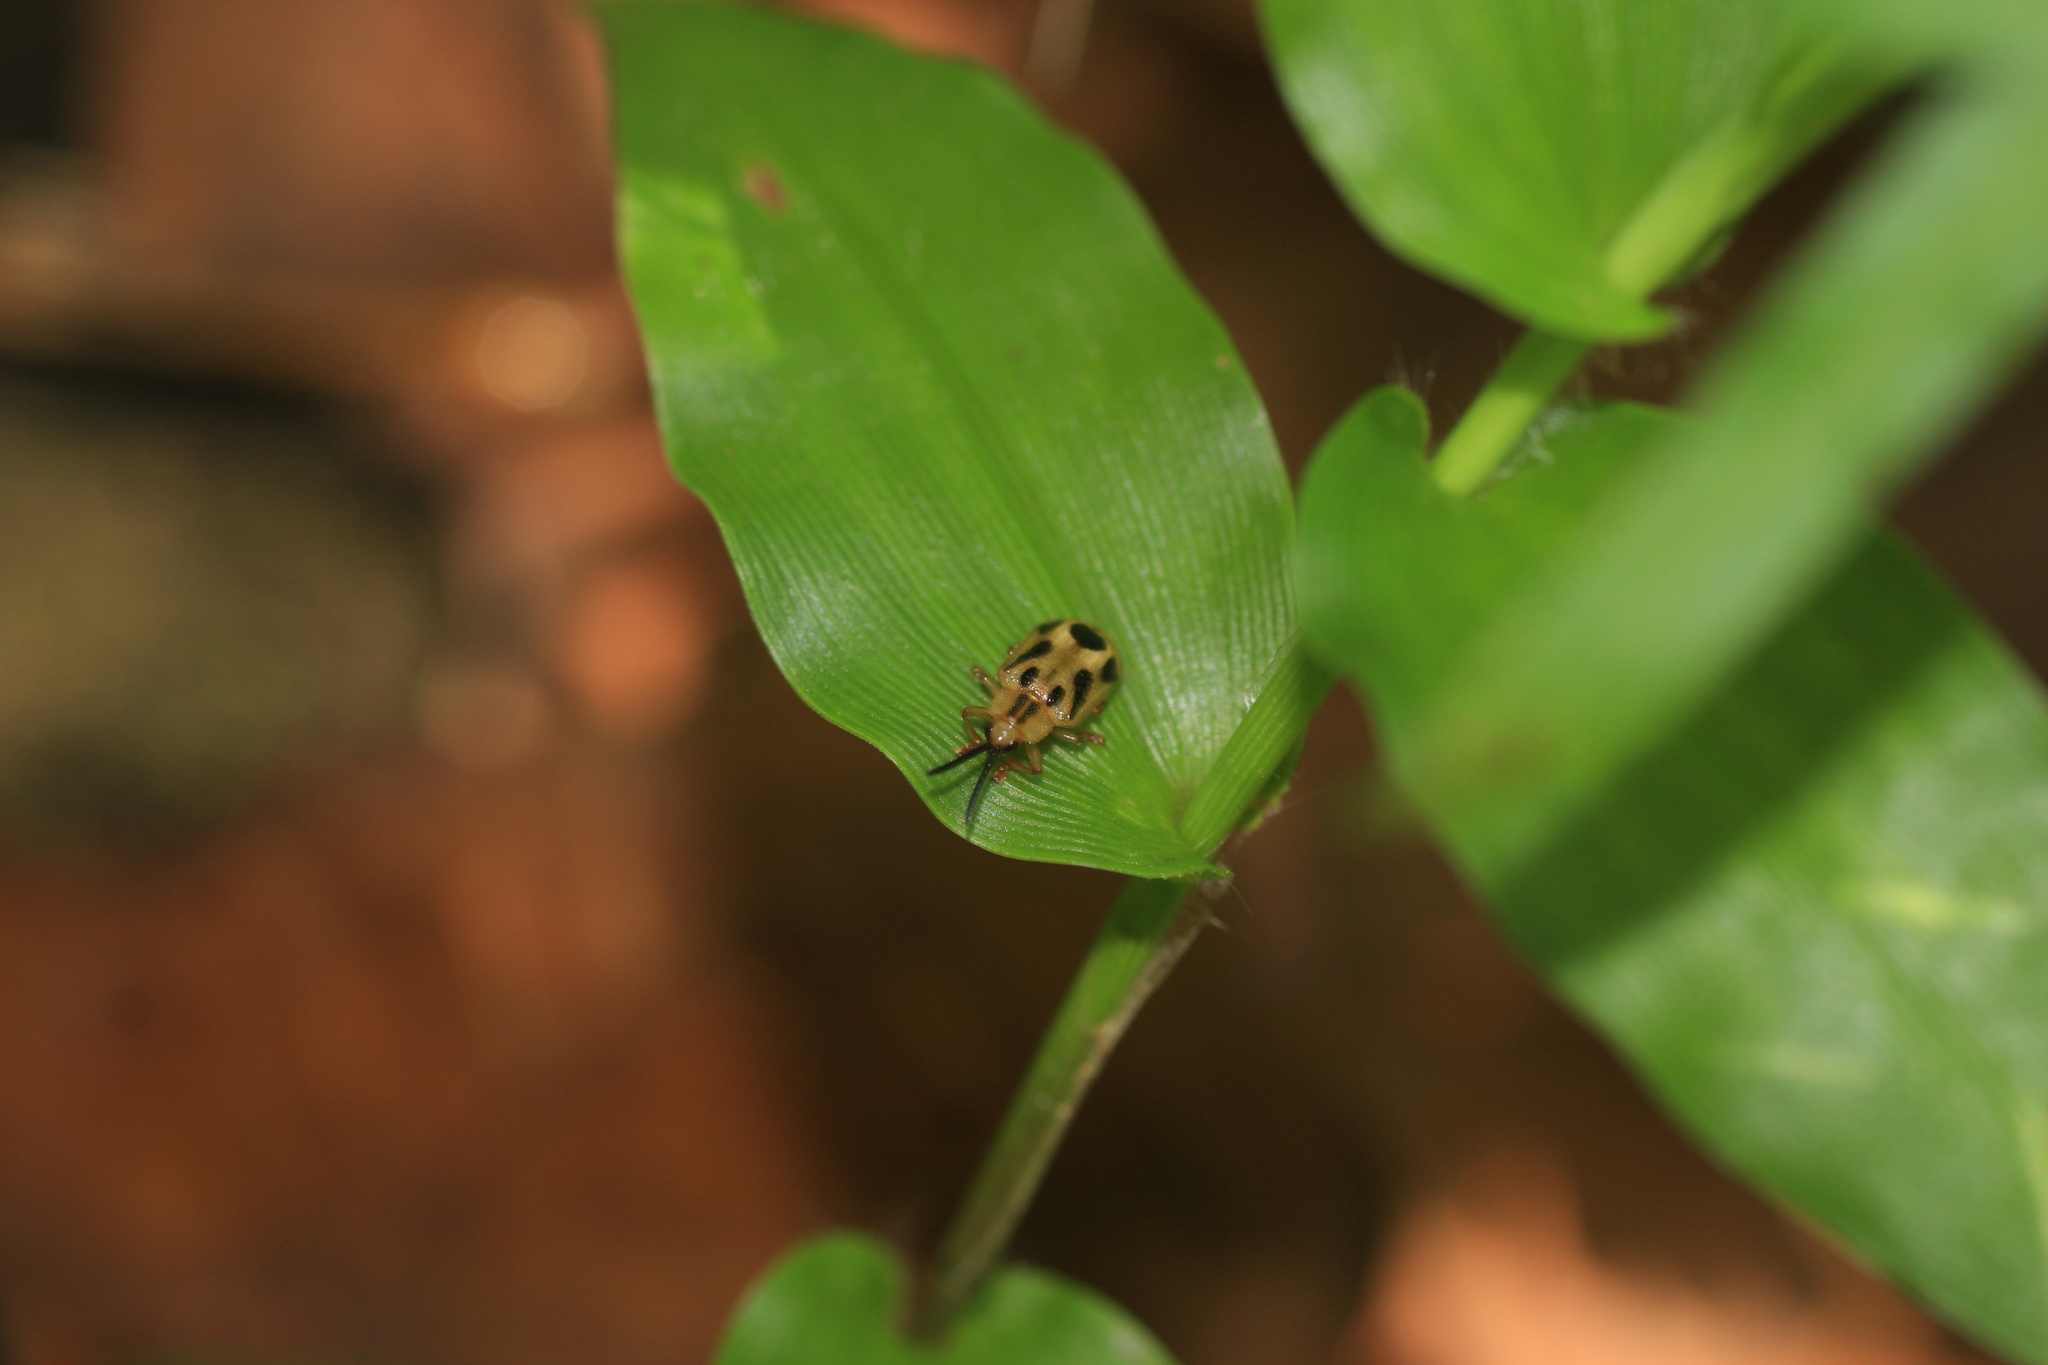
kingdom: Animalia
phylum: Arthropoda
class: Insecta
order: Coleoptera
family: Chrysomelidae
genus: Callispa
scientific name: Callispa septemmaculata
